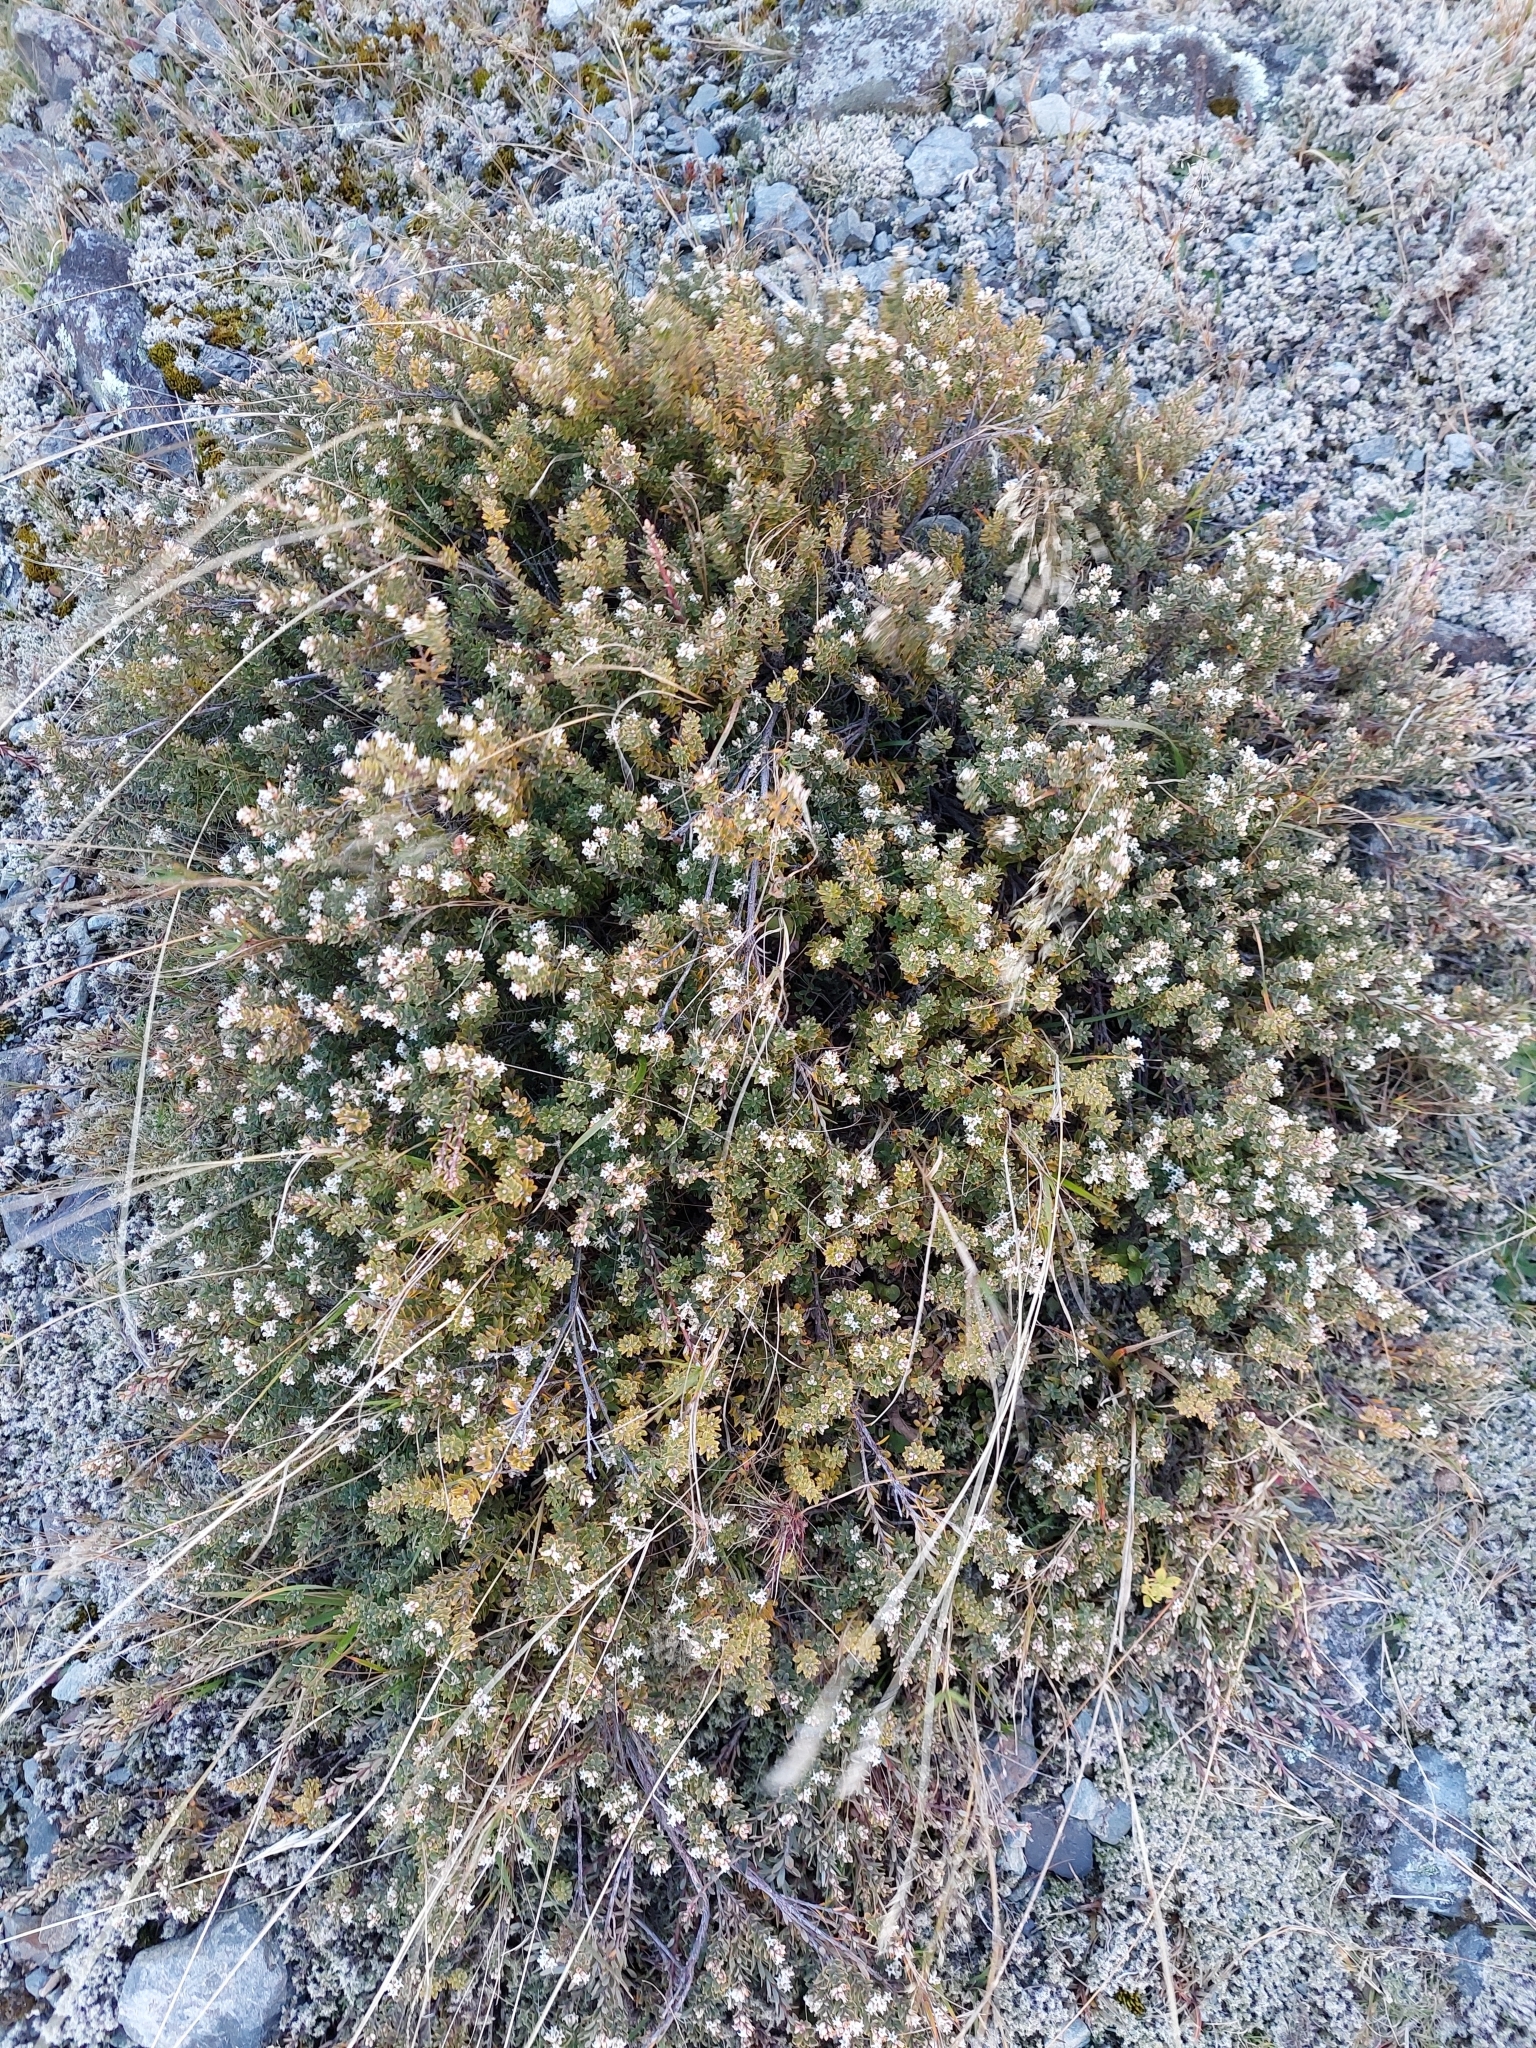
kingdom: Plantae
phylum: Tracheophyta
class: Magnoliopsida
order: Ericales
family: Ericaceae
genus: Acrothamnus
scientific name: Acrothamnus colensoi
